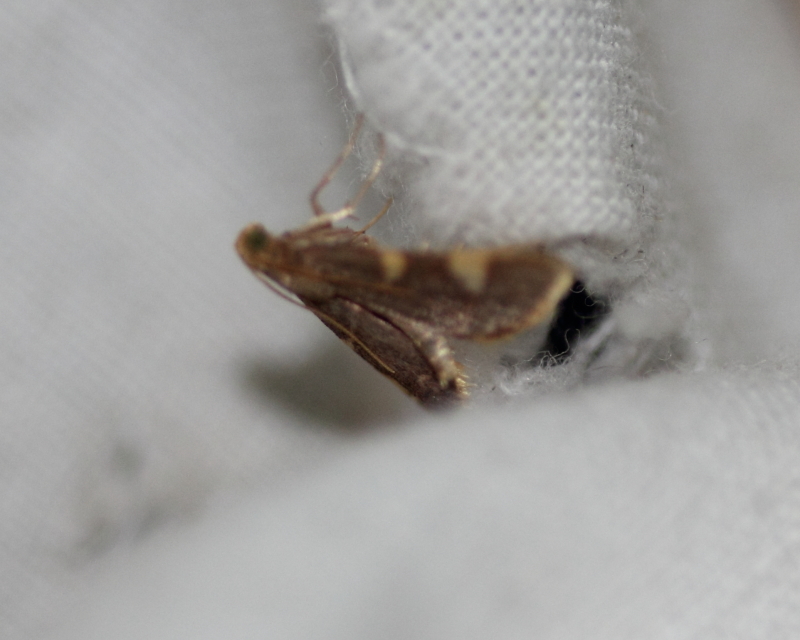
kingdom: Animalia
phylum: Arthropoda
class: Insecta
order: Lepidoptera
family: Pyralidae
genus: Hypsopygia
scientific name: Hypsopygia
